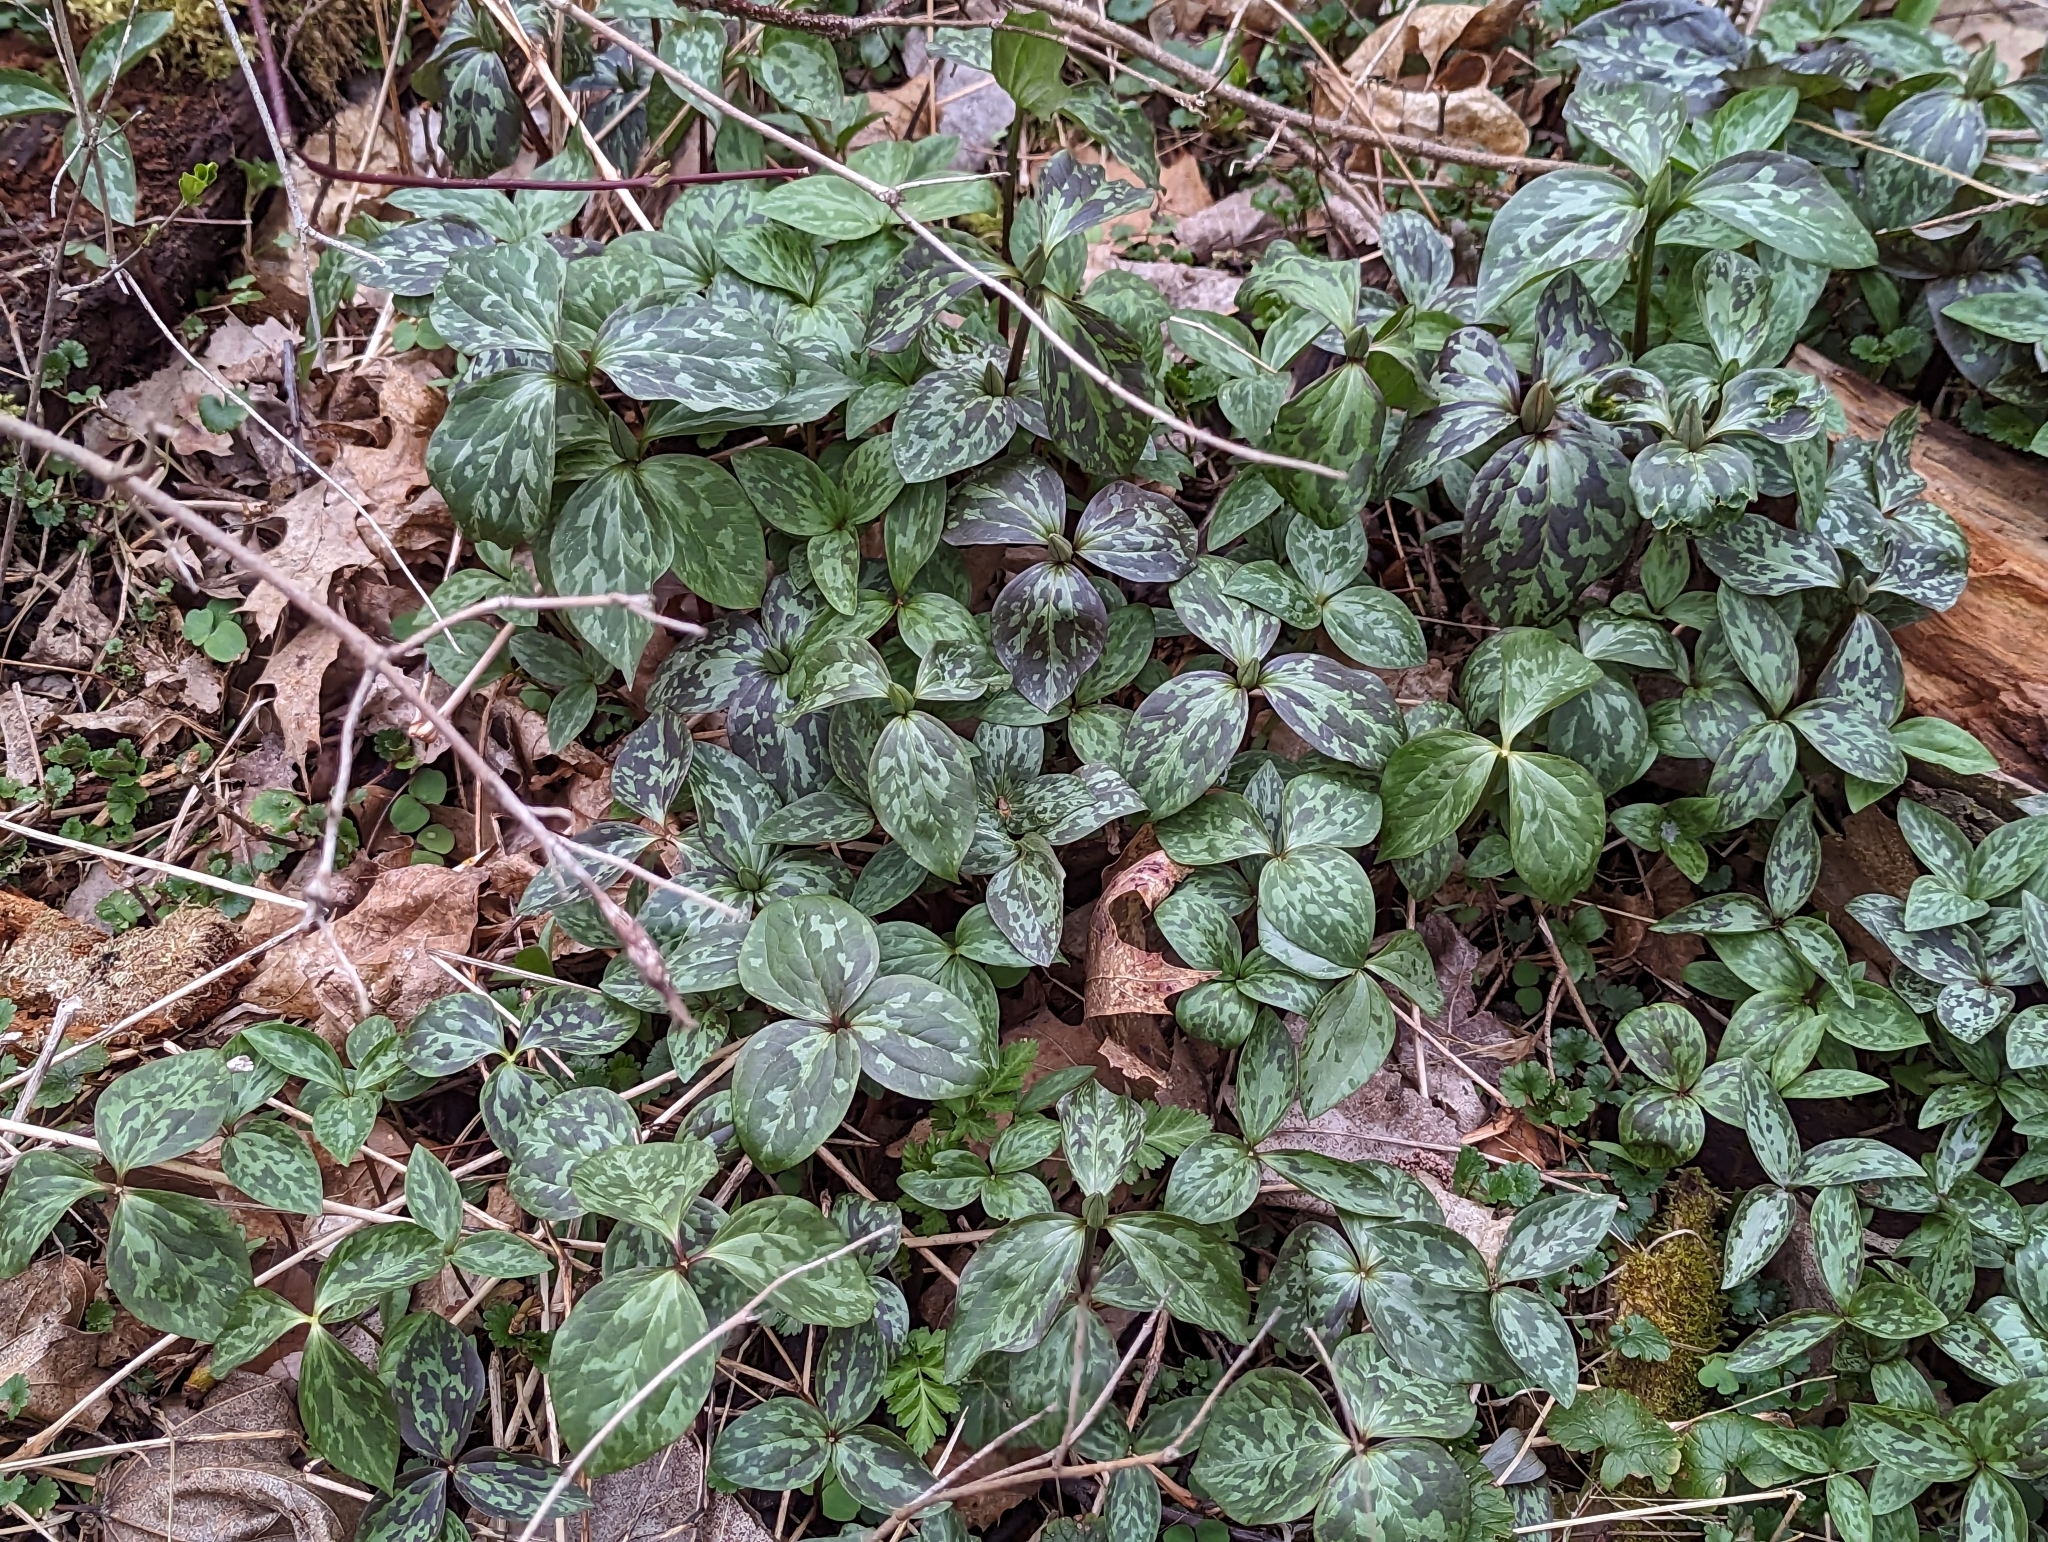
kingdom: Plantae
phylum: Tracheophyta
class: Liliopsida
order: Liliales
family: Melanthiaceae
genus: Trillium
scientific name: Trillium recurvatum
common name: Bloody butcher
